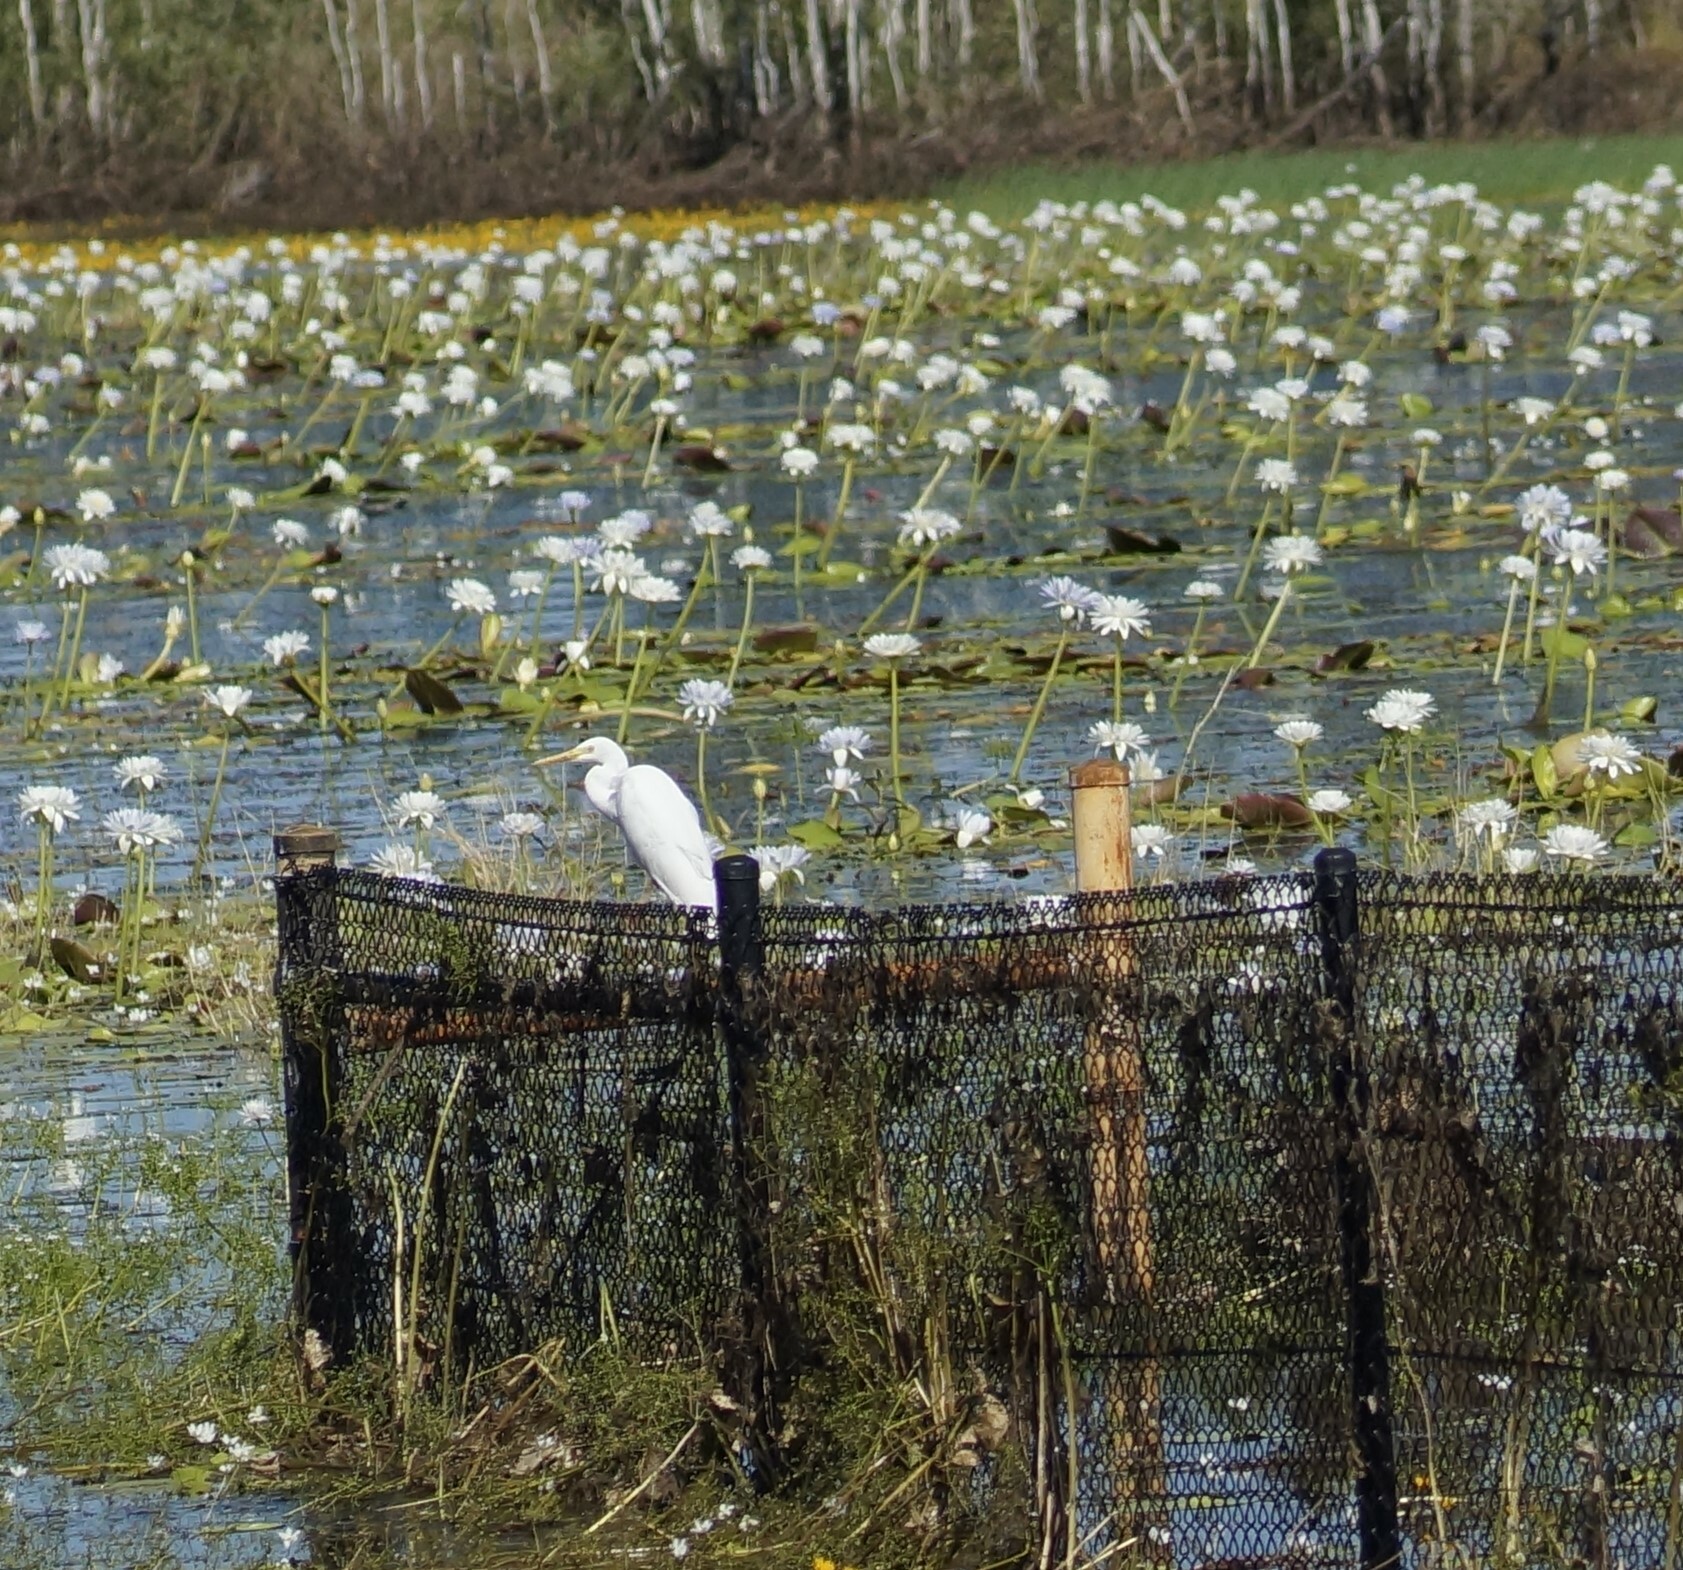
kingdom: Animalia
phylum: Chordata
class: Aves
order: Pelecaniformes
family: Ardeidae
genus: Ardea
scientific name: Ardea alba
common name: Great egret
